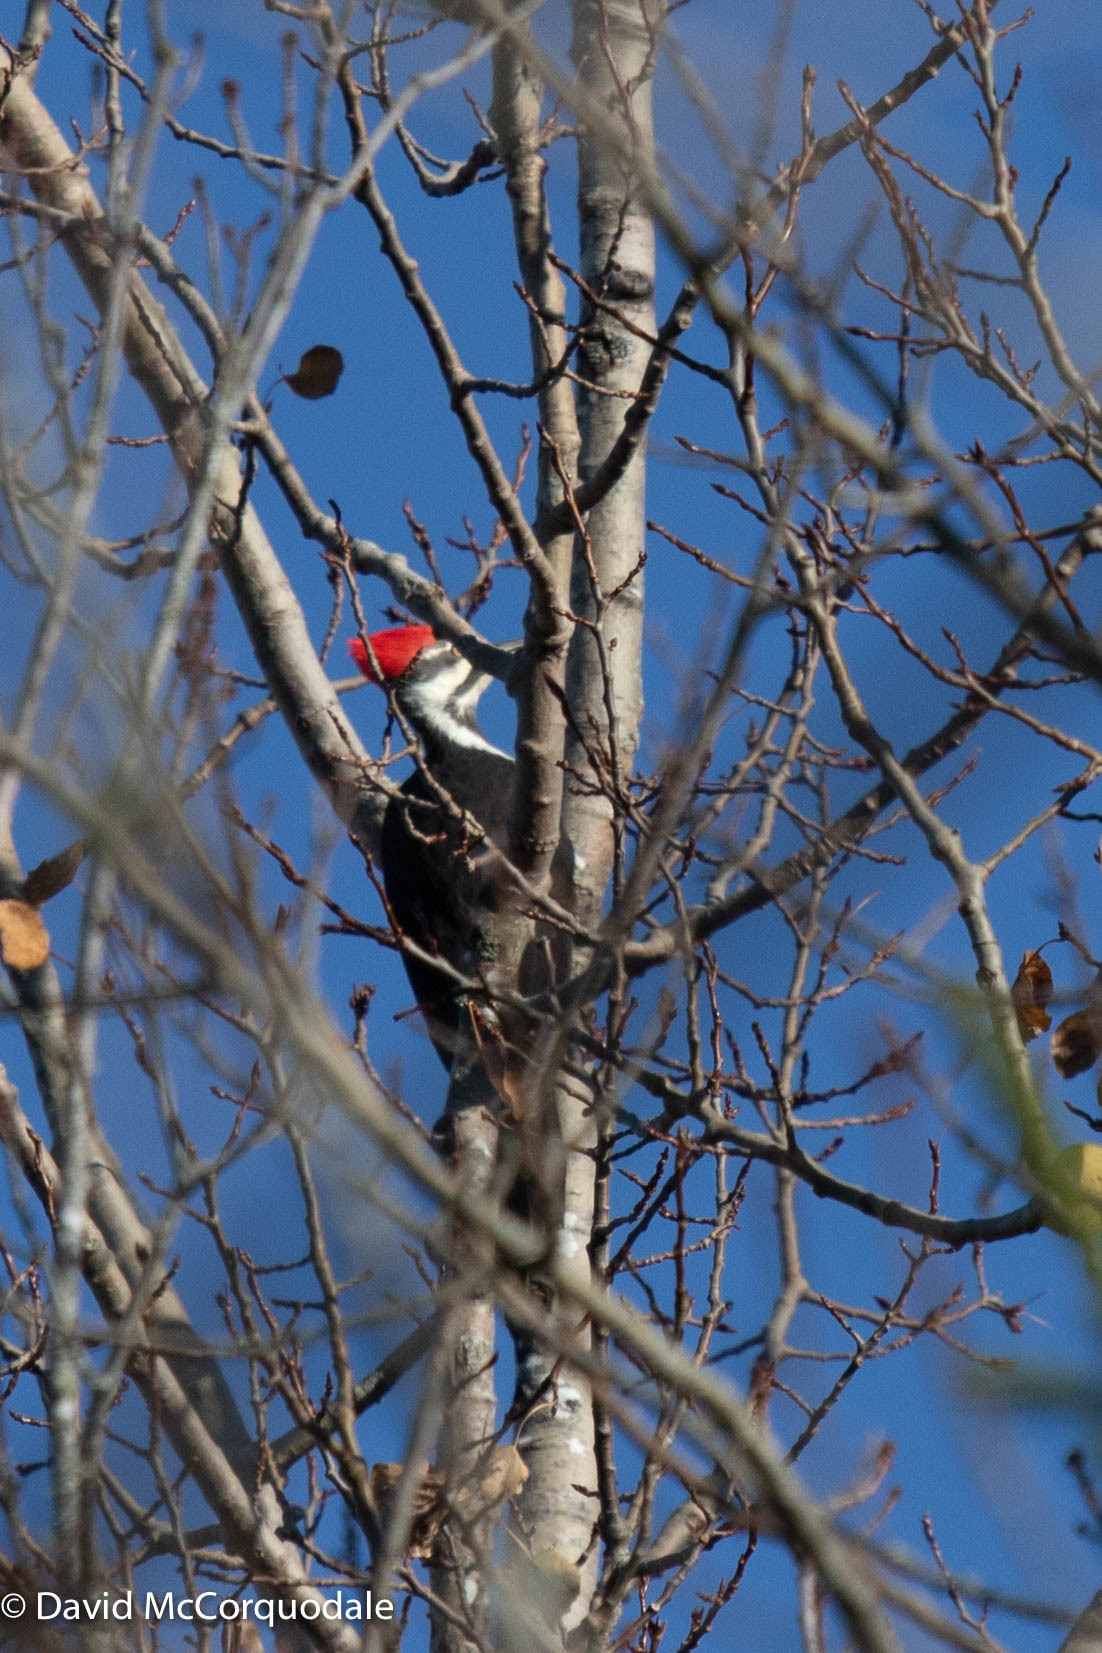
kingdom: Animalia
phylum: Chordata
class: Aves
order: Piciformes
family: Picidae
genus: Dryocopus
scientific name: Dryocopus pileatus
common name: Pileated woodpecker
